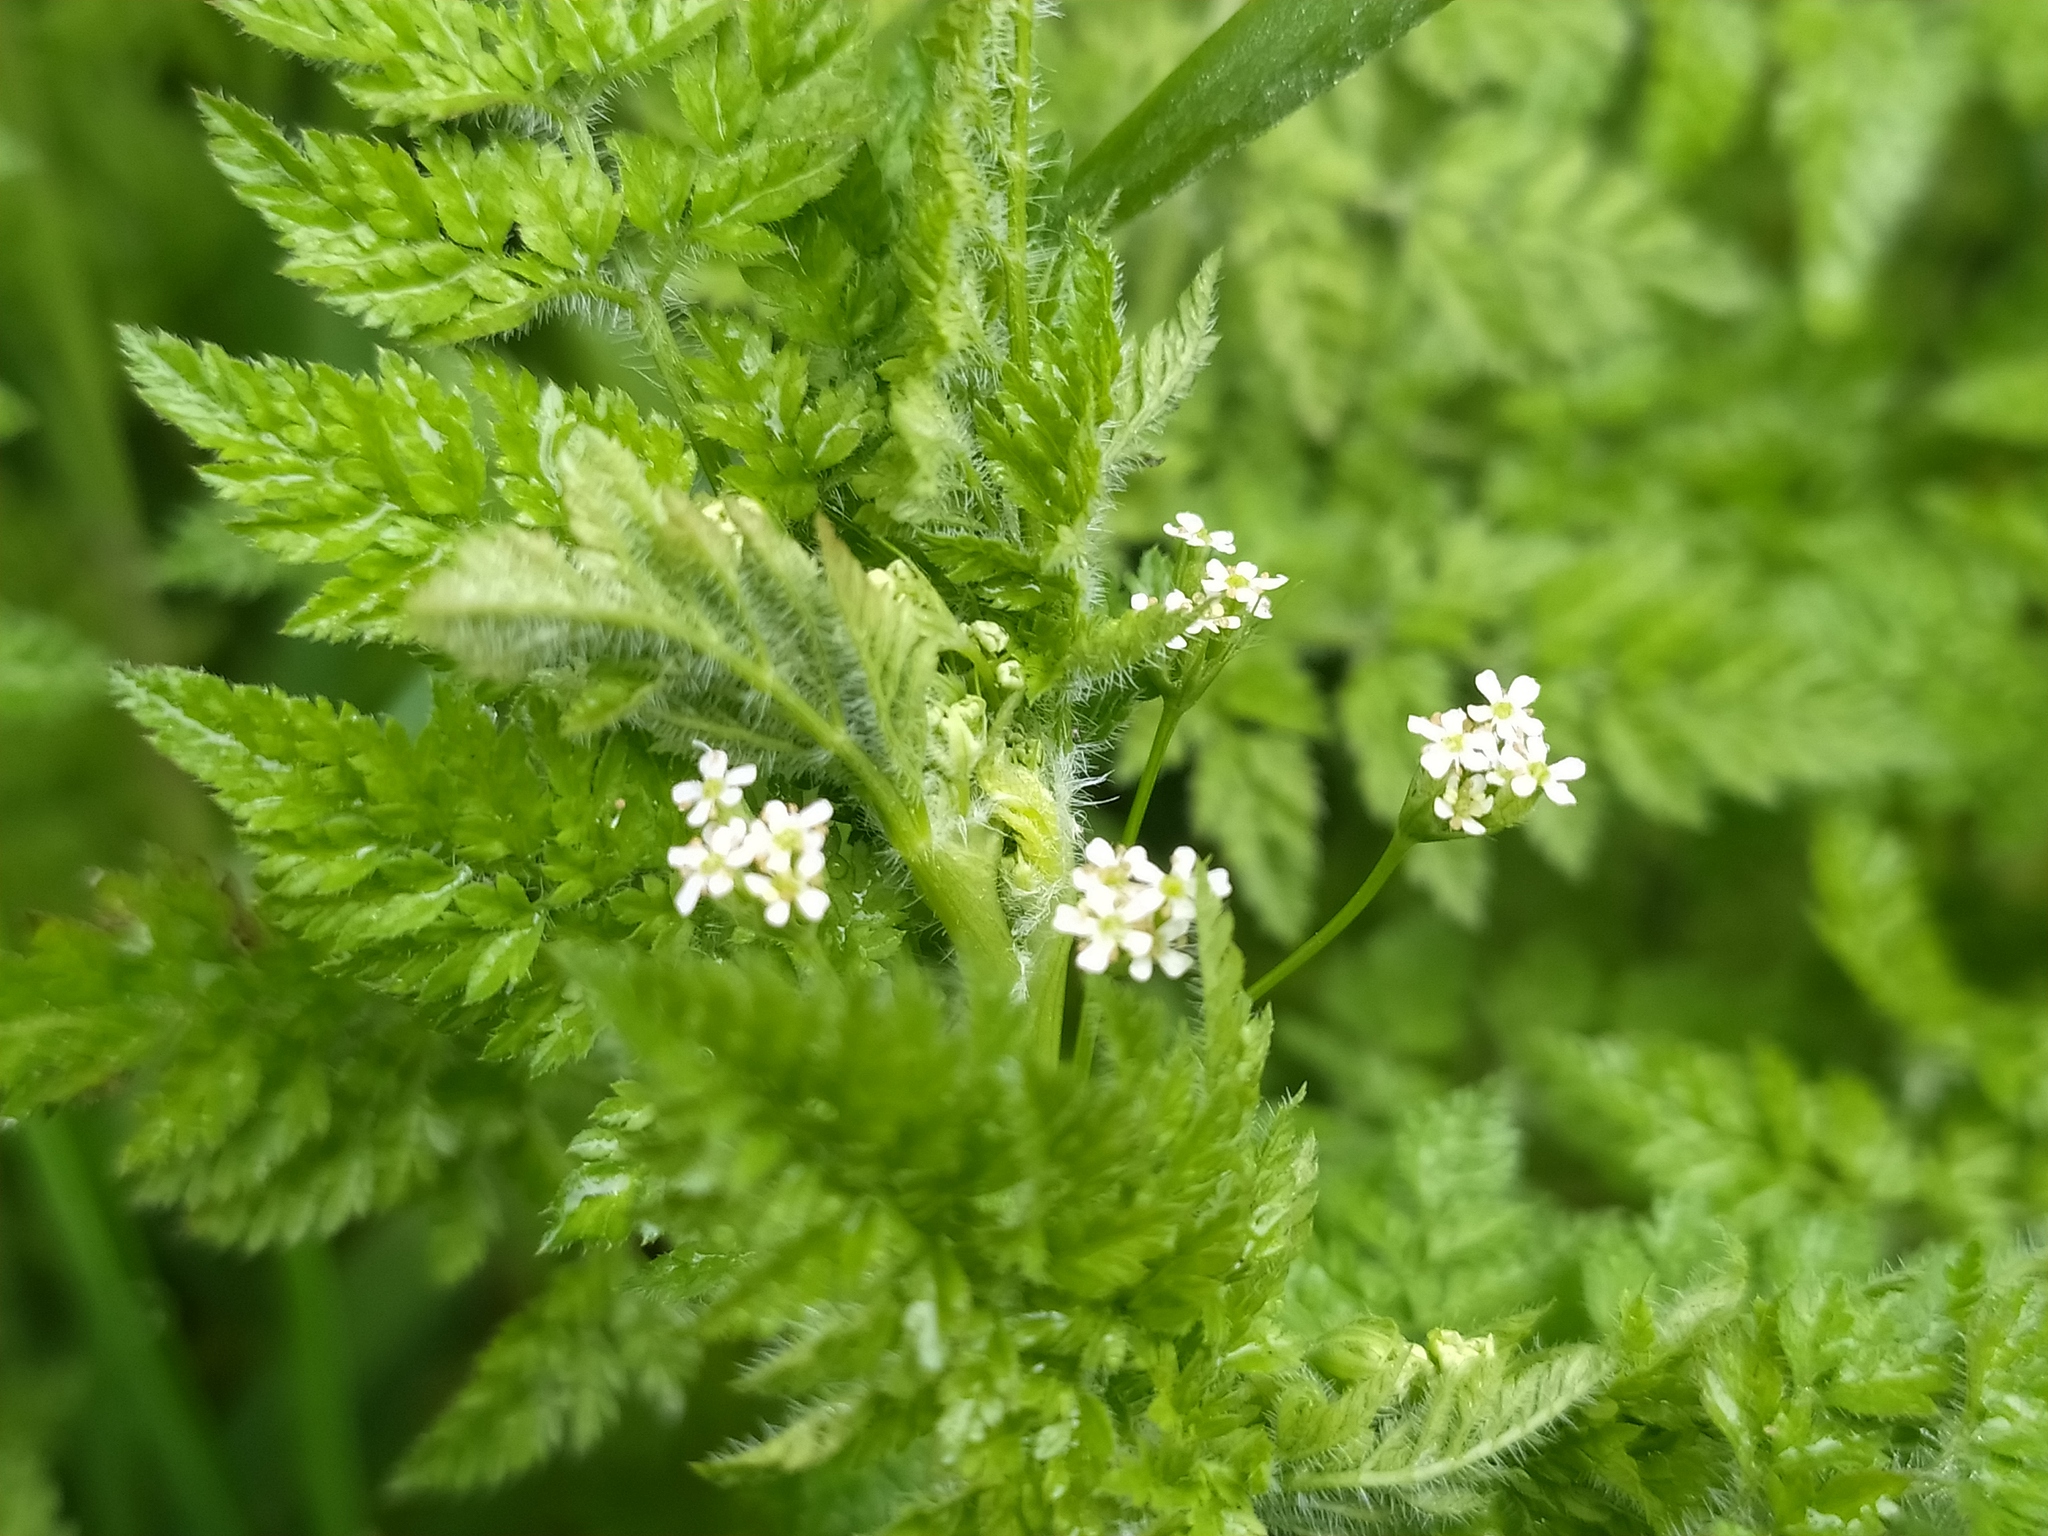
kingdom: Plantae
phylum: Tracheophyta
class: Magnoliopsida
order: Apiales
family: Apiaceae
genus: Anthriscus
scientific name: Anthriscus caucalis
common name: Bur chervil
